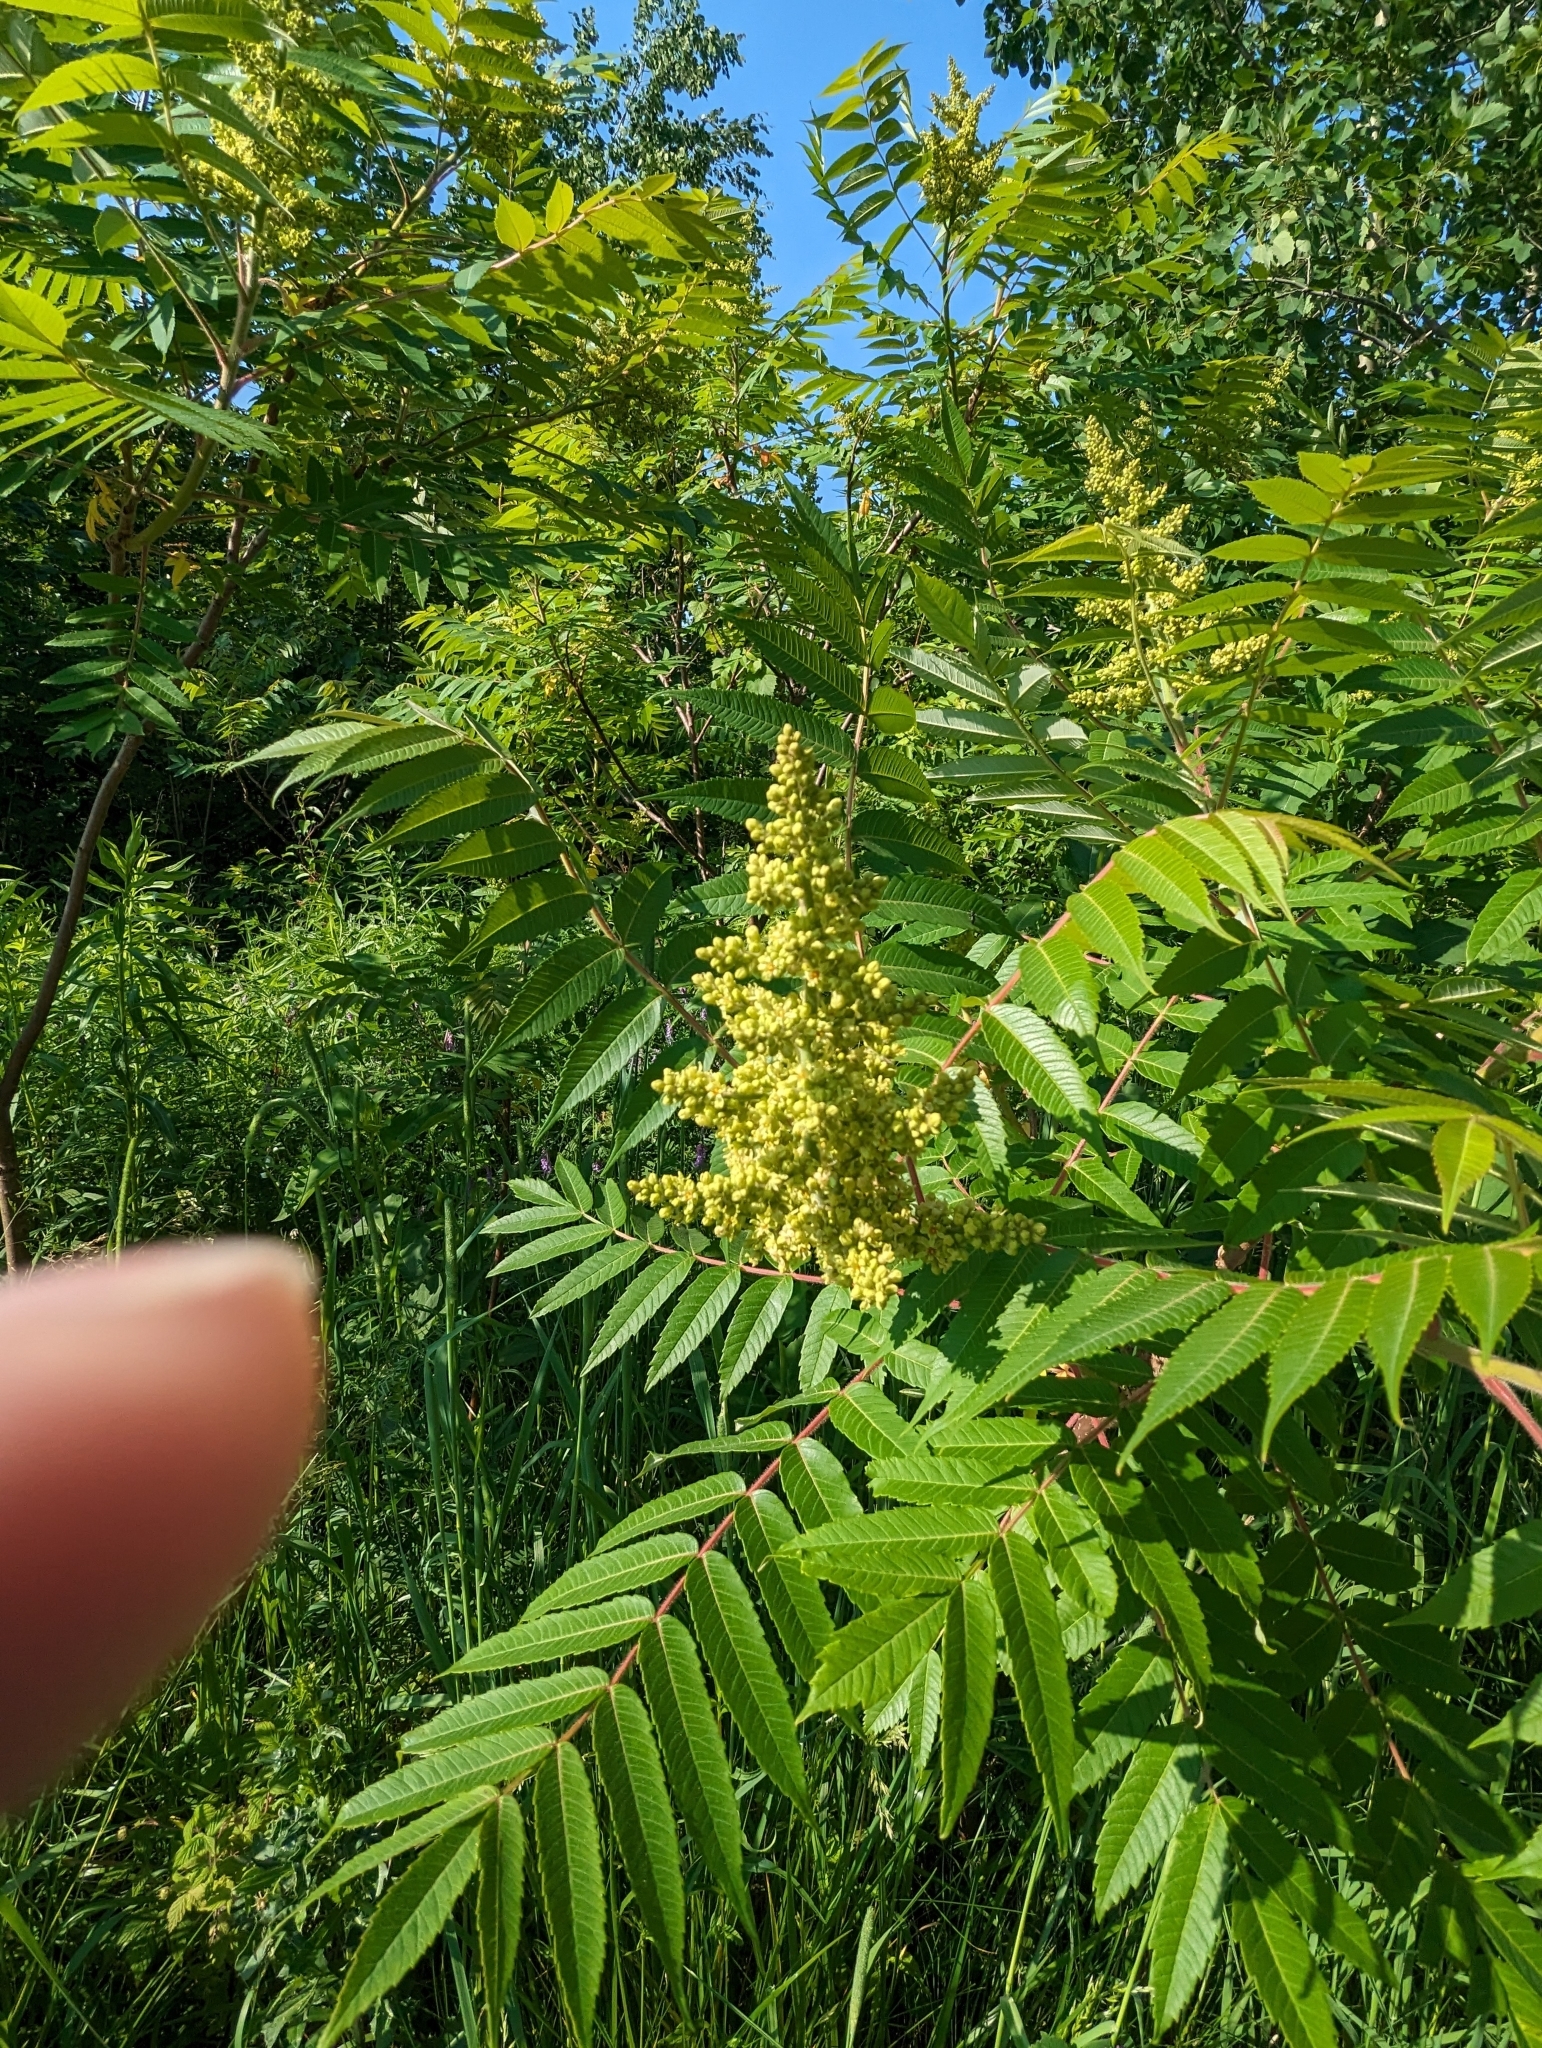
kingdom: Plantae
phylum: Tracheophyta
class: Magnoliopsida
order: Sapindales
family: Anacardiaceae
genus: Rhus
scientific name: Rhus typhina
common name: Staghorn sumac
